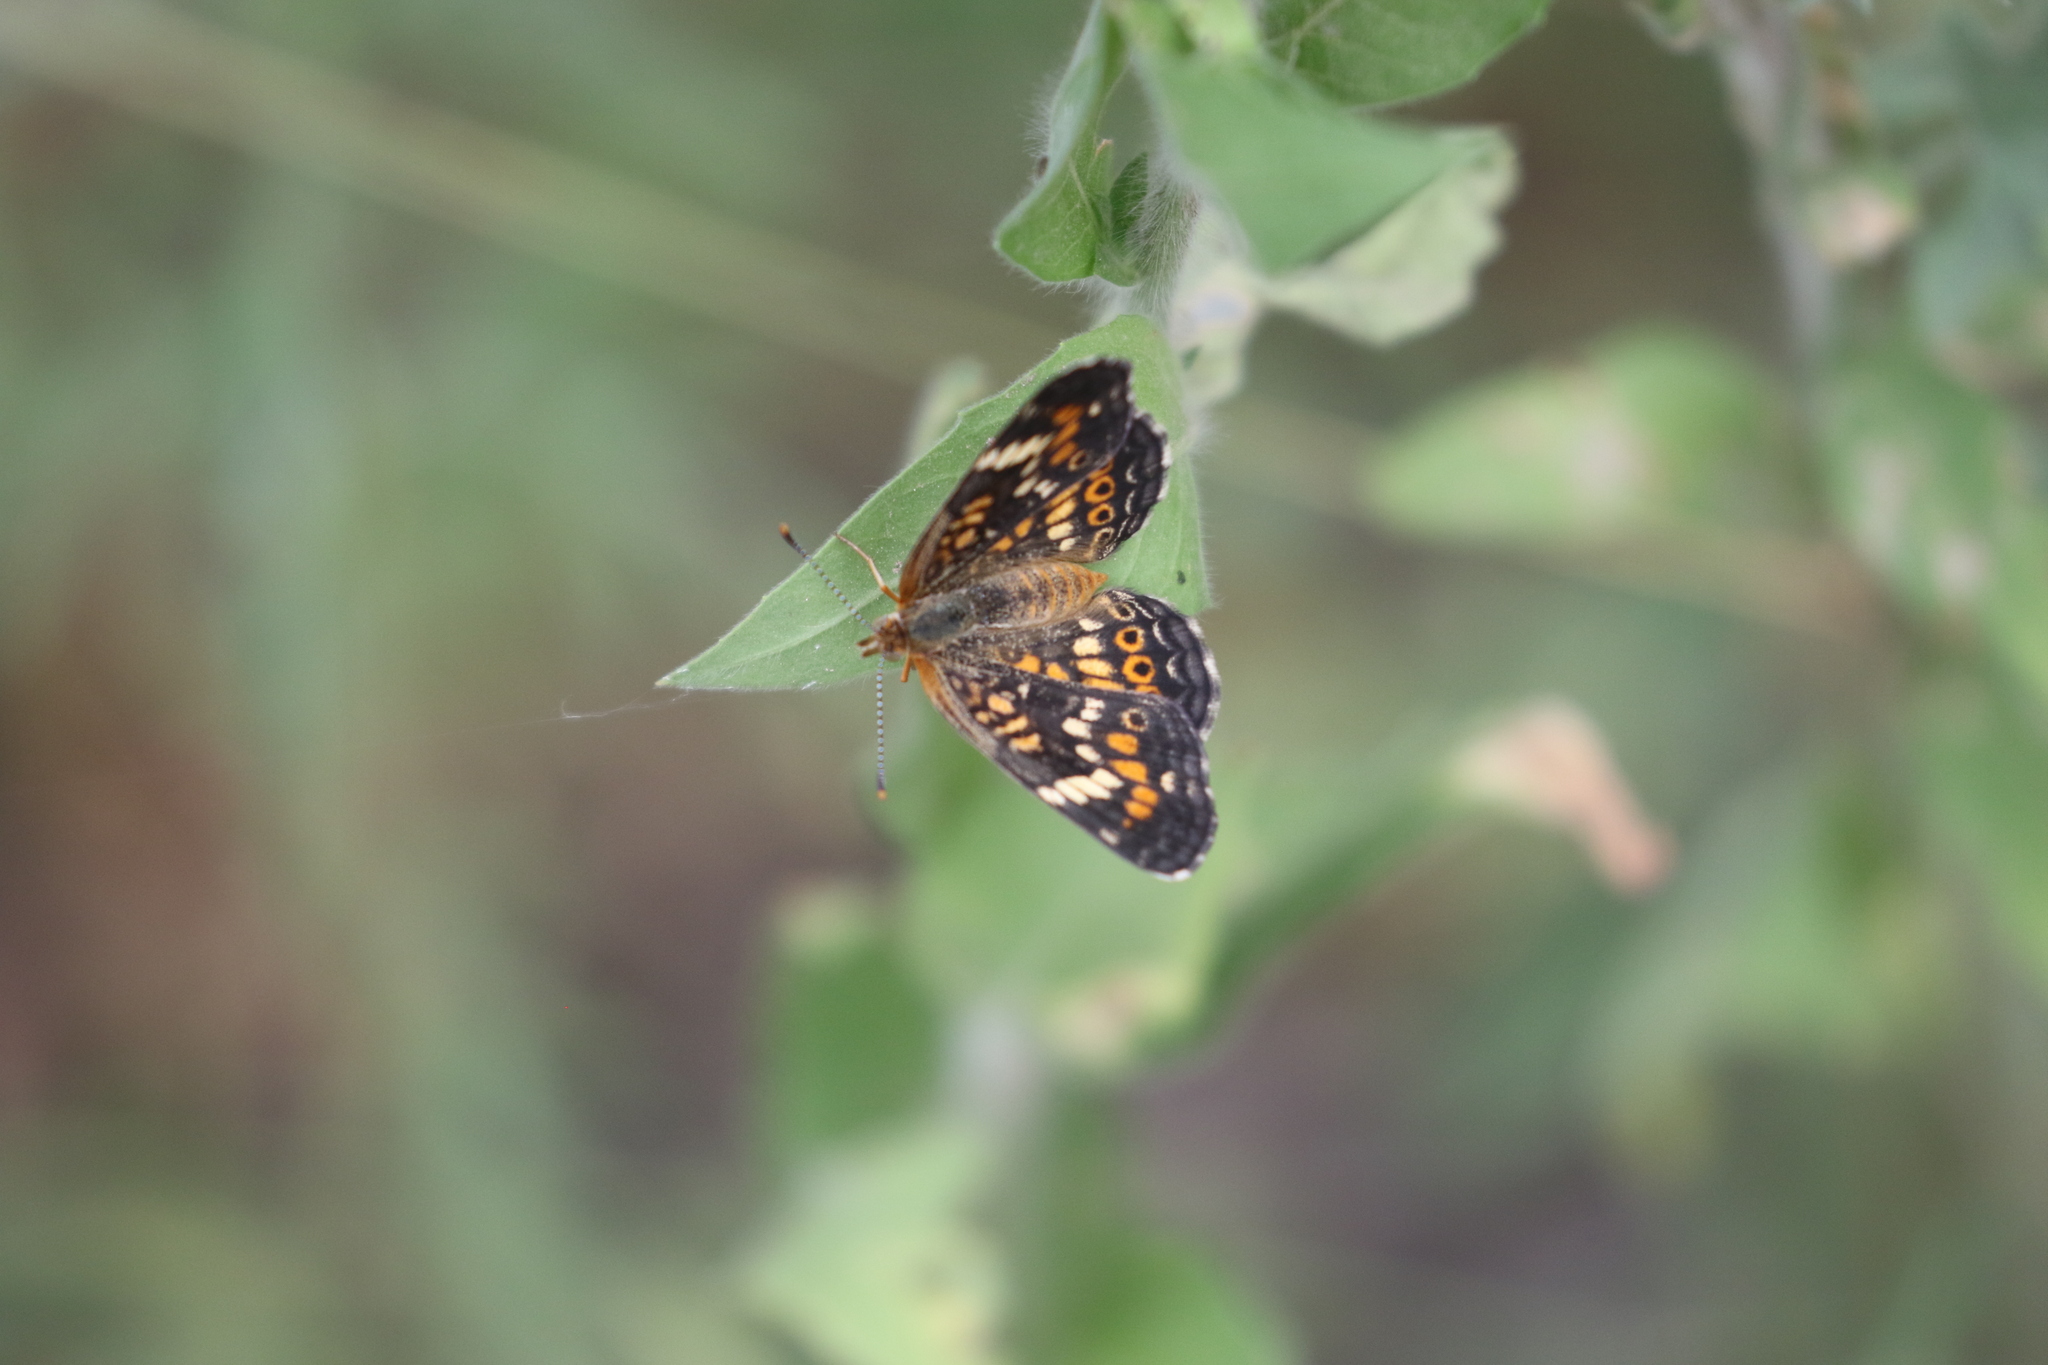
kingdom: Animalia
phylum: Arthropoda
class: Insecta
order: Lepidoptera
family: Nymphalidae
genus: Phyciodes
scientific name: Phyciodes phaon
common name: Phaon crescent
